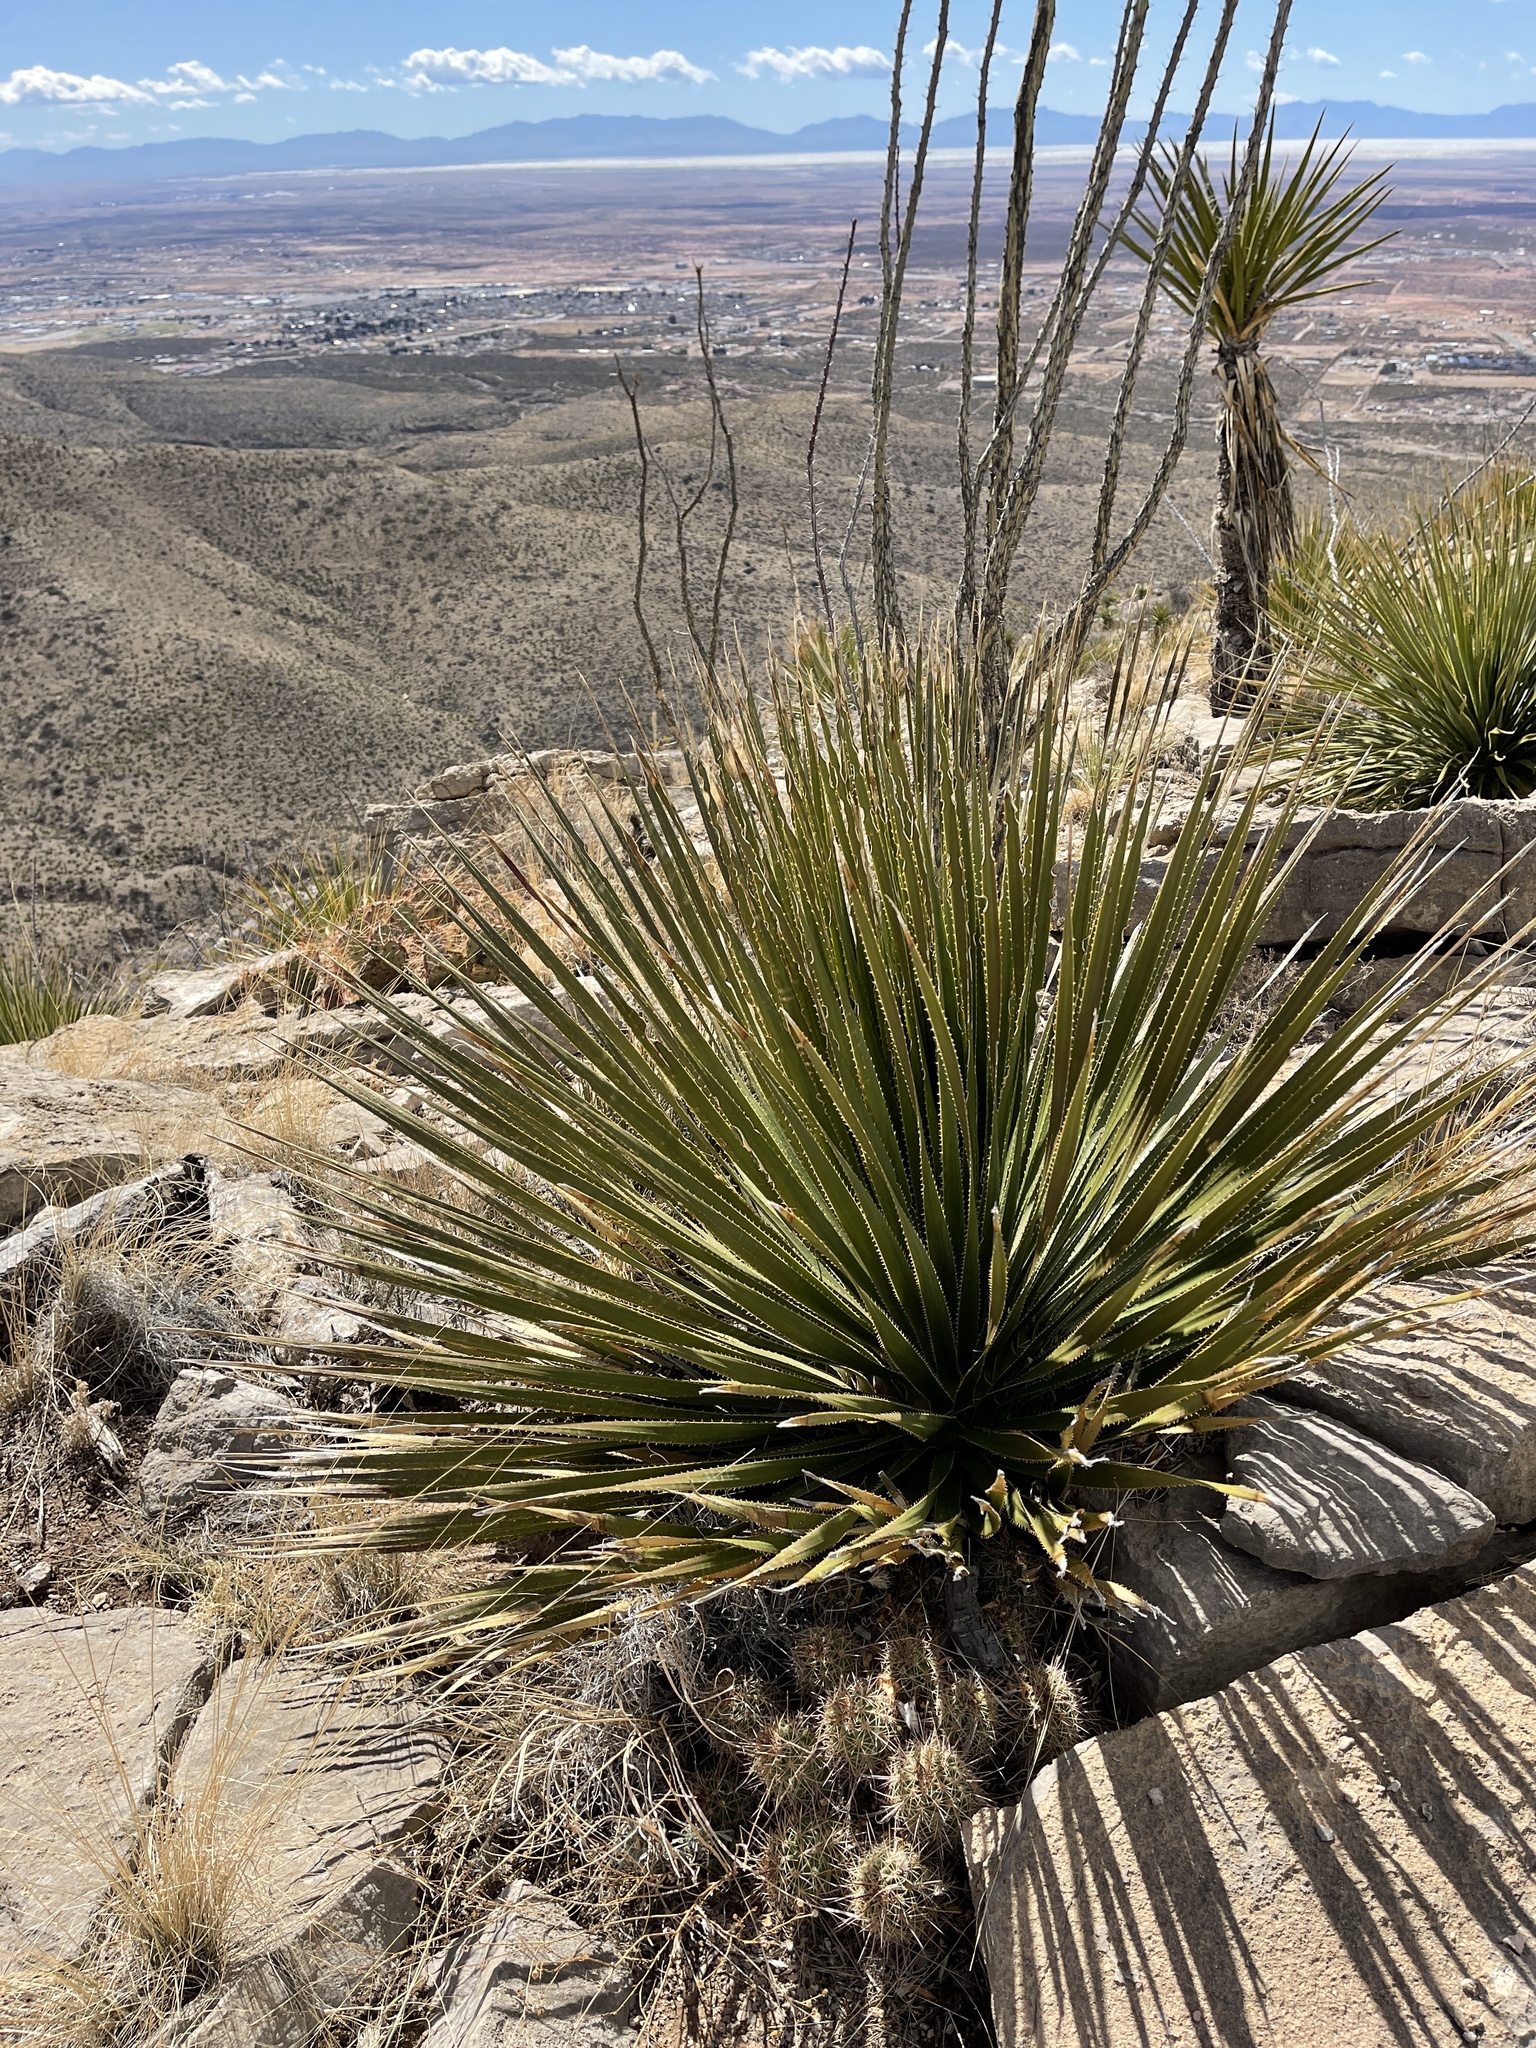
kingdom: Plantae
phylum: Tracheophyta
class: Liliopsida
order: Asparagales
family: Asparagaceae
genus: Dasylirion
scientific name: Dasylirion wheeleri
